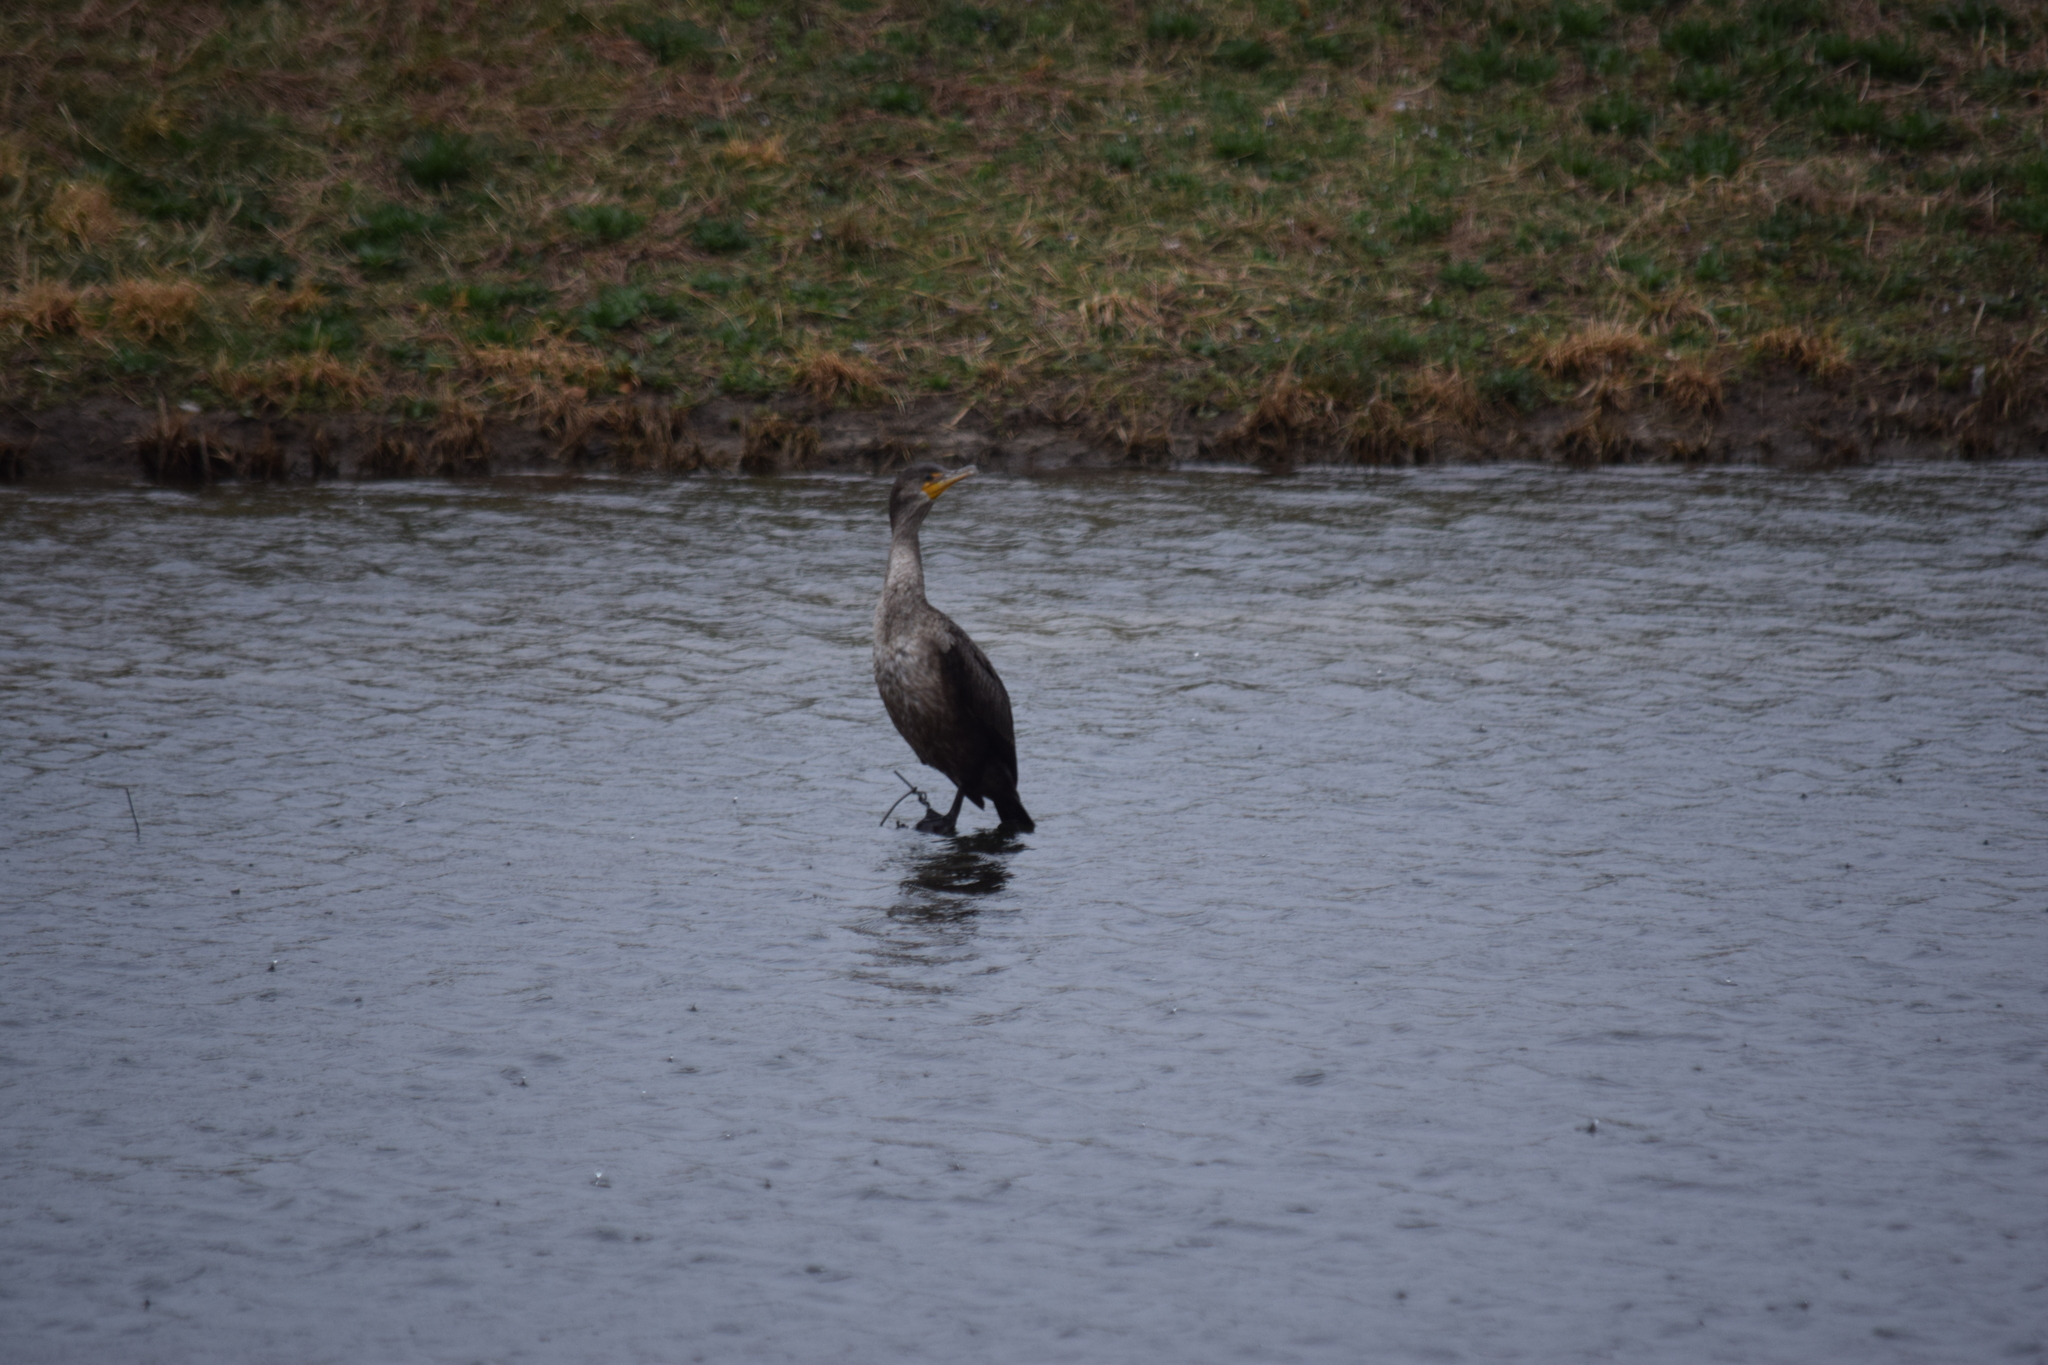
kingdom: Animalia
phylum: Chordata
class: Aves
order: Suliformes
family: Phalacrocoracidae
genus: Phalacrocorax
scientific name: Phalacrocorax auritus
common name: Double-crested cormorant
